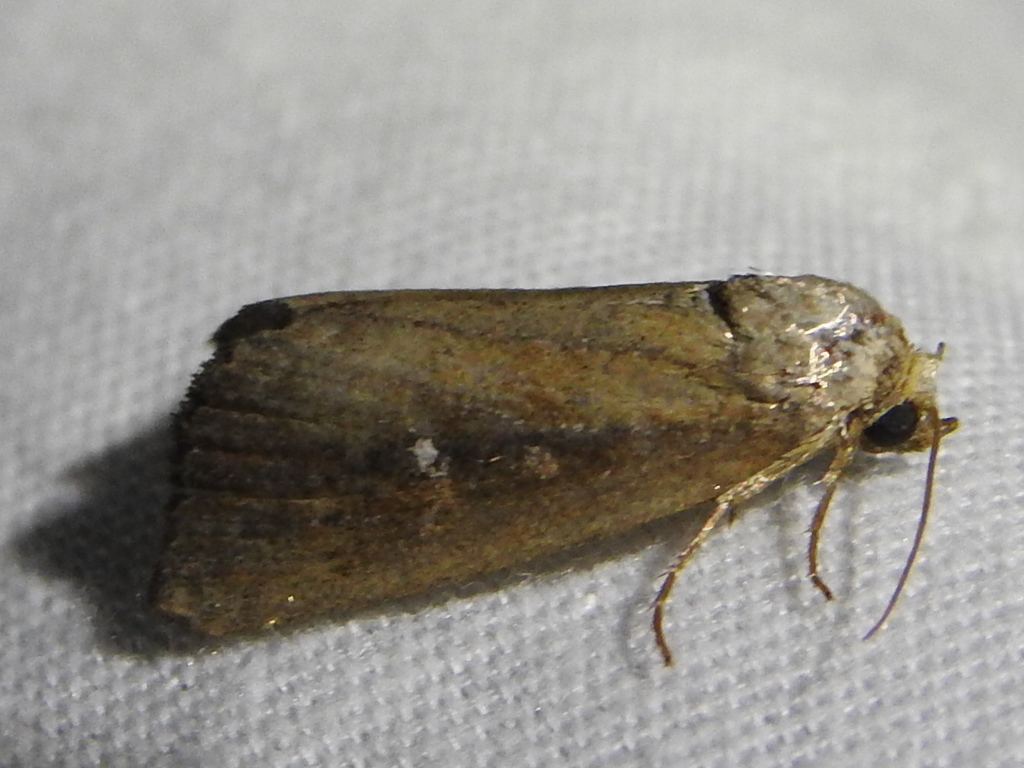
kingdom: Animalia
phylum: Arthropoda
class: Insecta
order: Lepidoptera
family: Noctuidae
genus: Condica
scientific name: Condica videns
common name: White-dotted groundling
